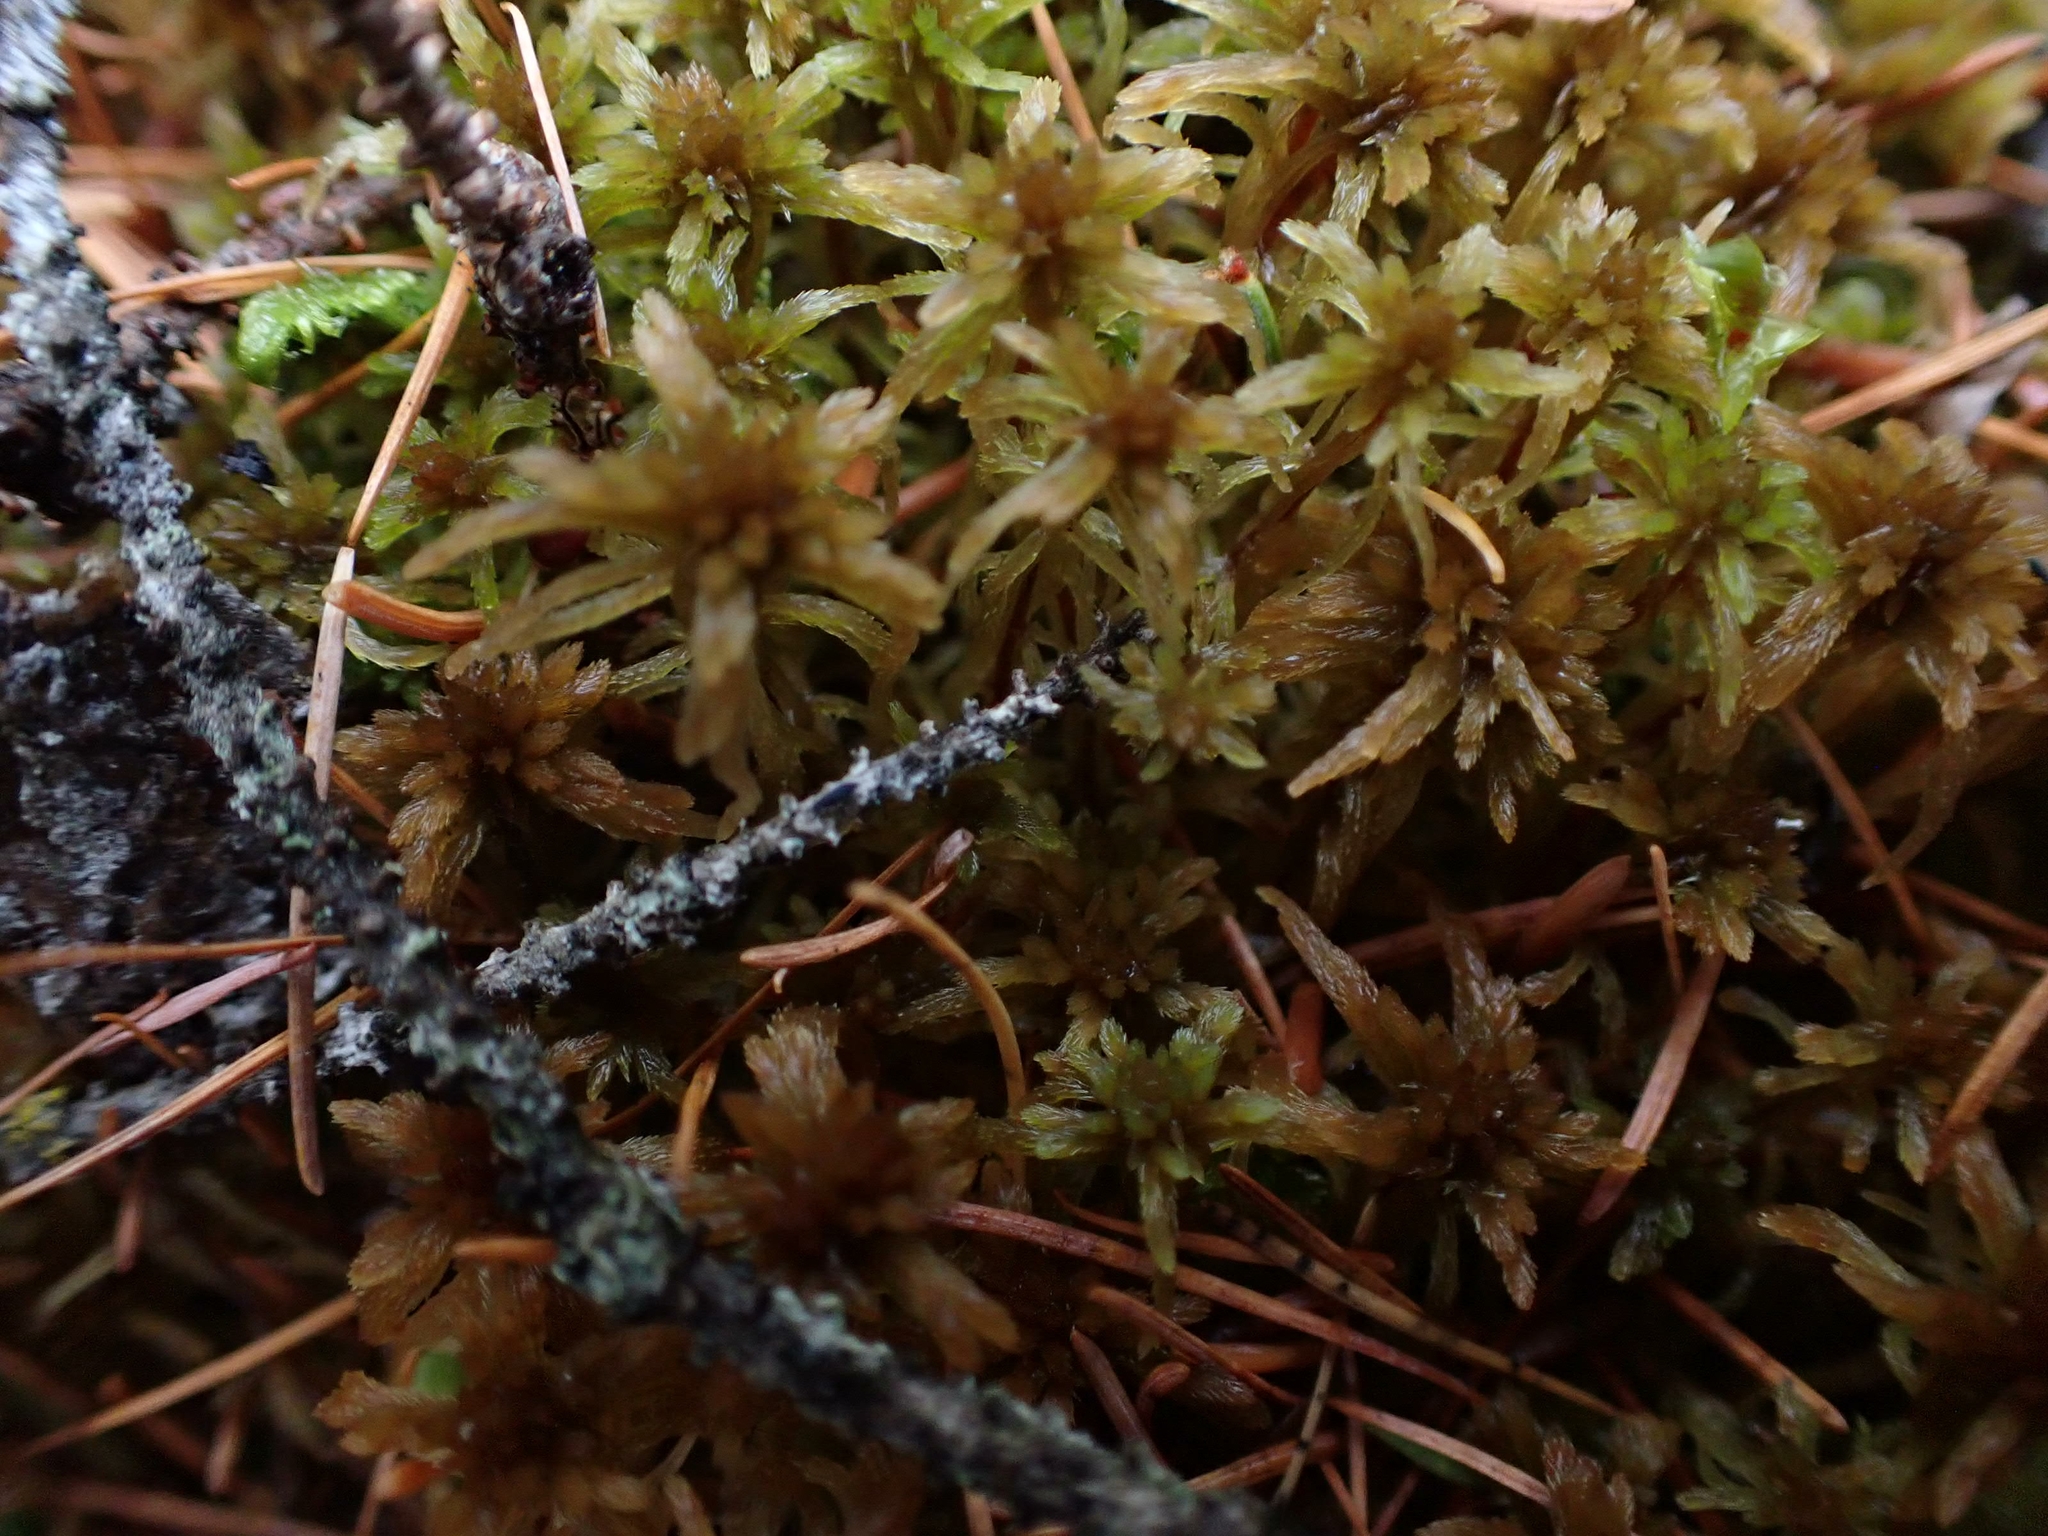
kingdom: Plantae
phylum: Bryophyta
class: Sphagnopsida
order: Sphagnales
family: Sphagnaceae
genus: Sphagnum
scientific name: Sphagnum fuscum
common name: Brown peat moss
